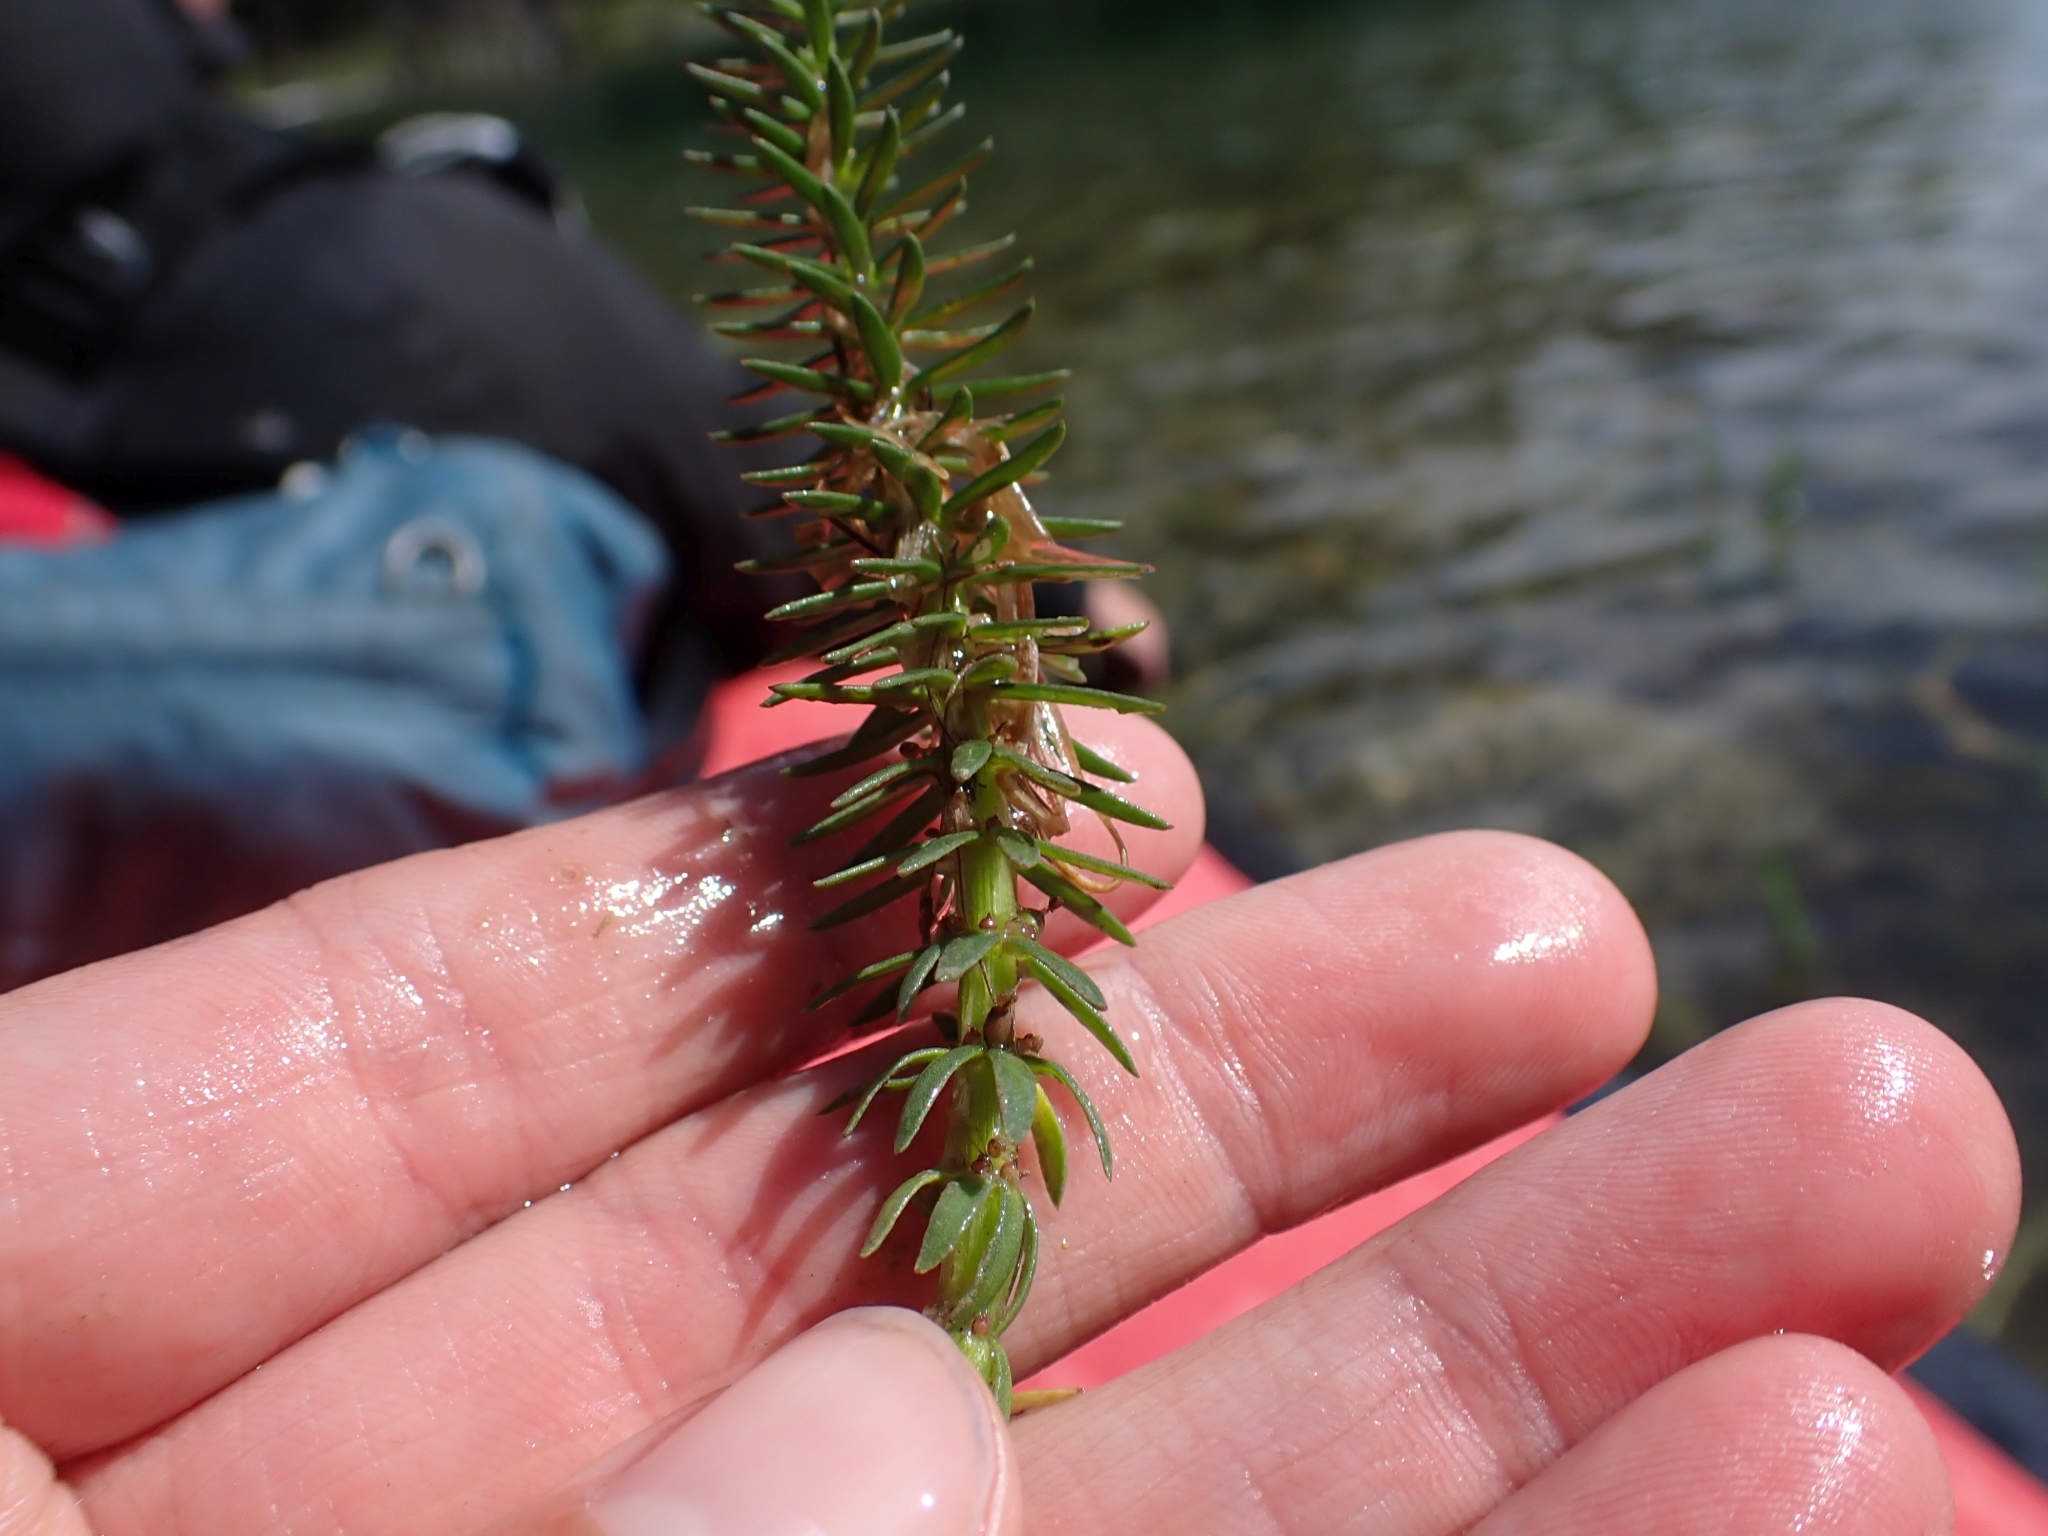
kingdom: Plantae
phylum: Tracheophyta
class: Magnoliopsida
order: Lamiales
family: Plantaginaceae
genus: Hippuris
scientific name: Hippuris vulgaris
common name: Mare's-tail
